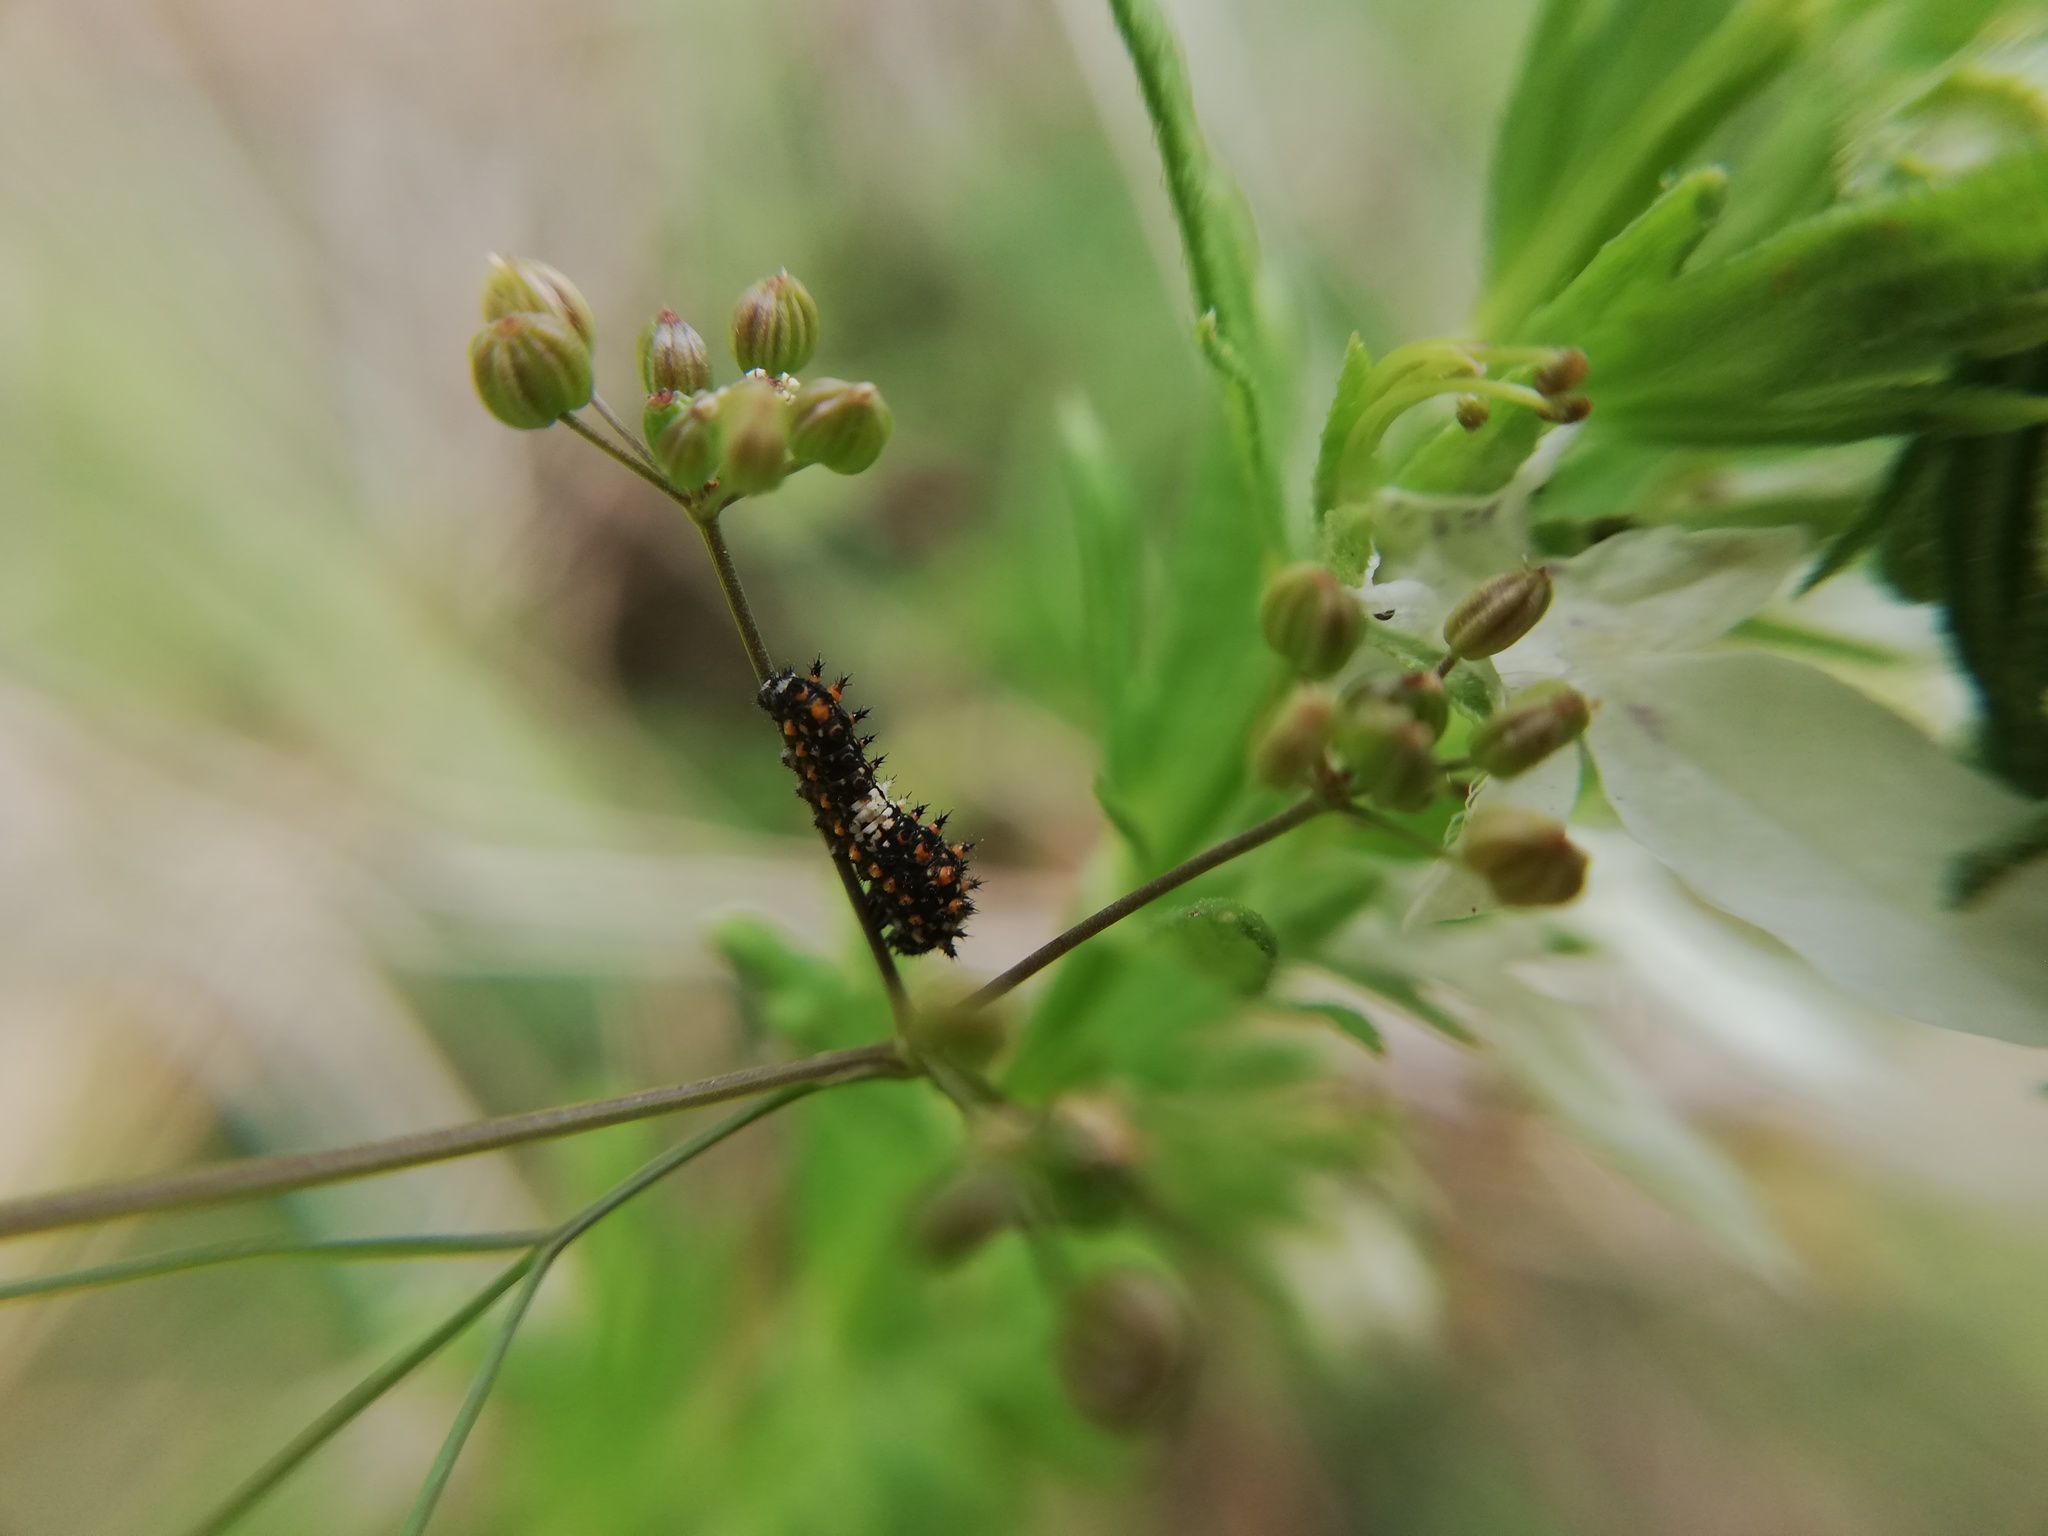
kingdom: Animalia
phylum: Arthropoda
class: Insecta
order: Lepidoptera
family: Papilionidae
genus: Papilio
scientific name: Papilio polyxenes
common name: Black swallowtail
